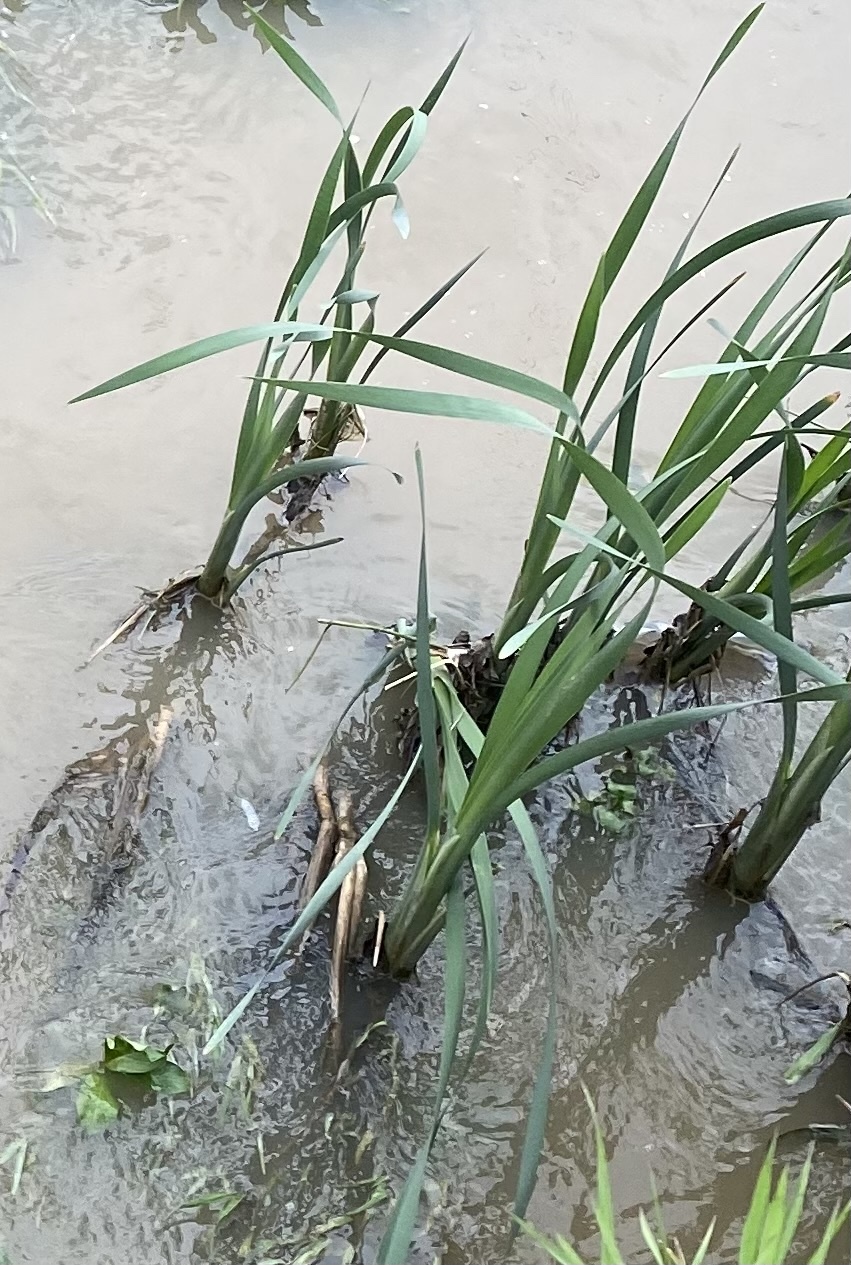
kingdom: Plantae
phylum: Tracheophyta
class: Liliopsida
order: Poales
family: Typhaceae
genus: Typha
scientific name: Typha latifolia
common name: Broadleaf cattail
